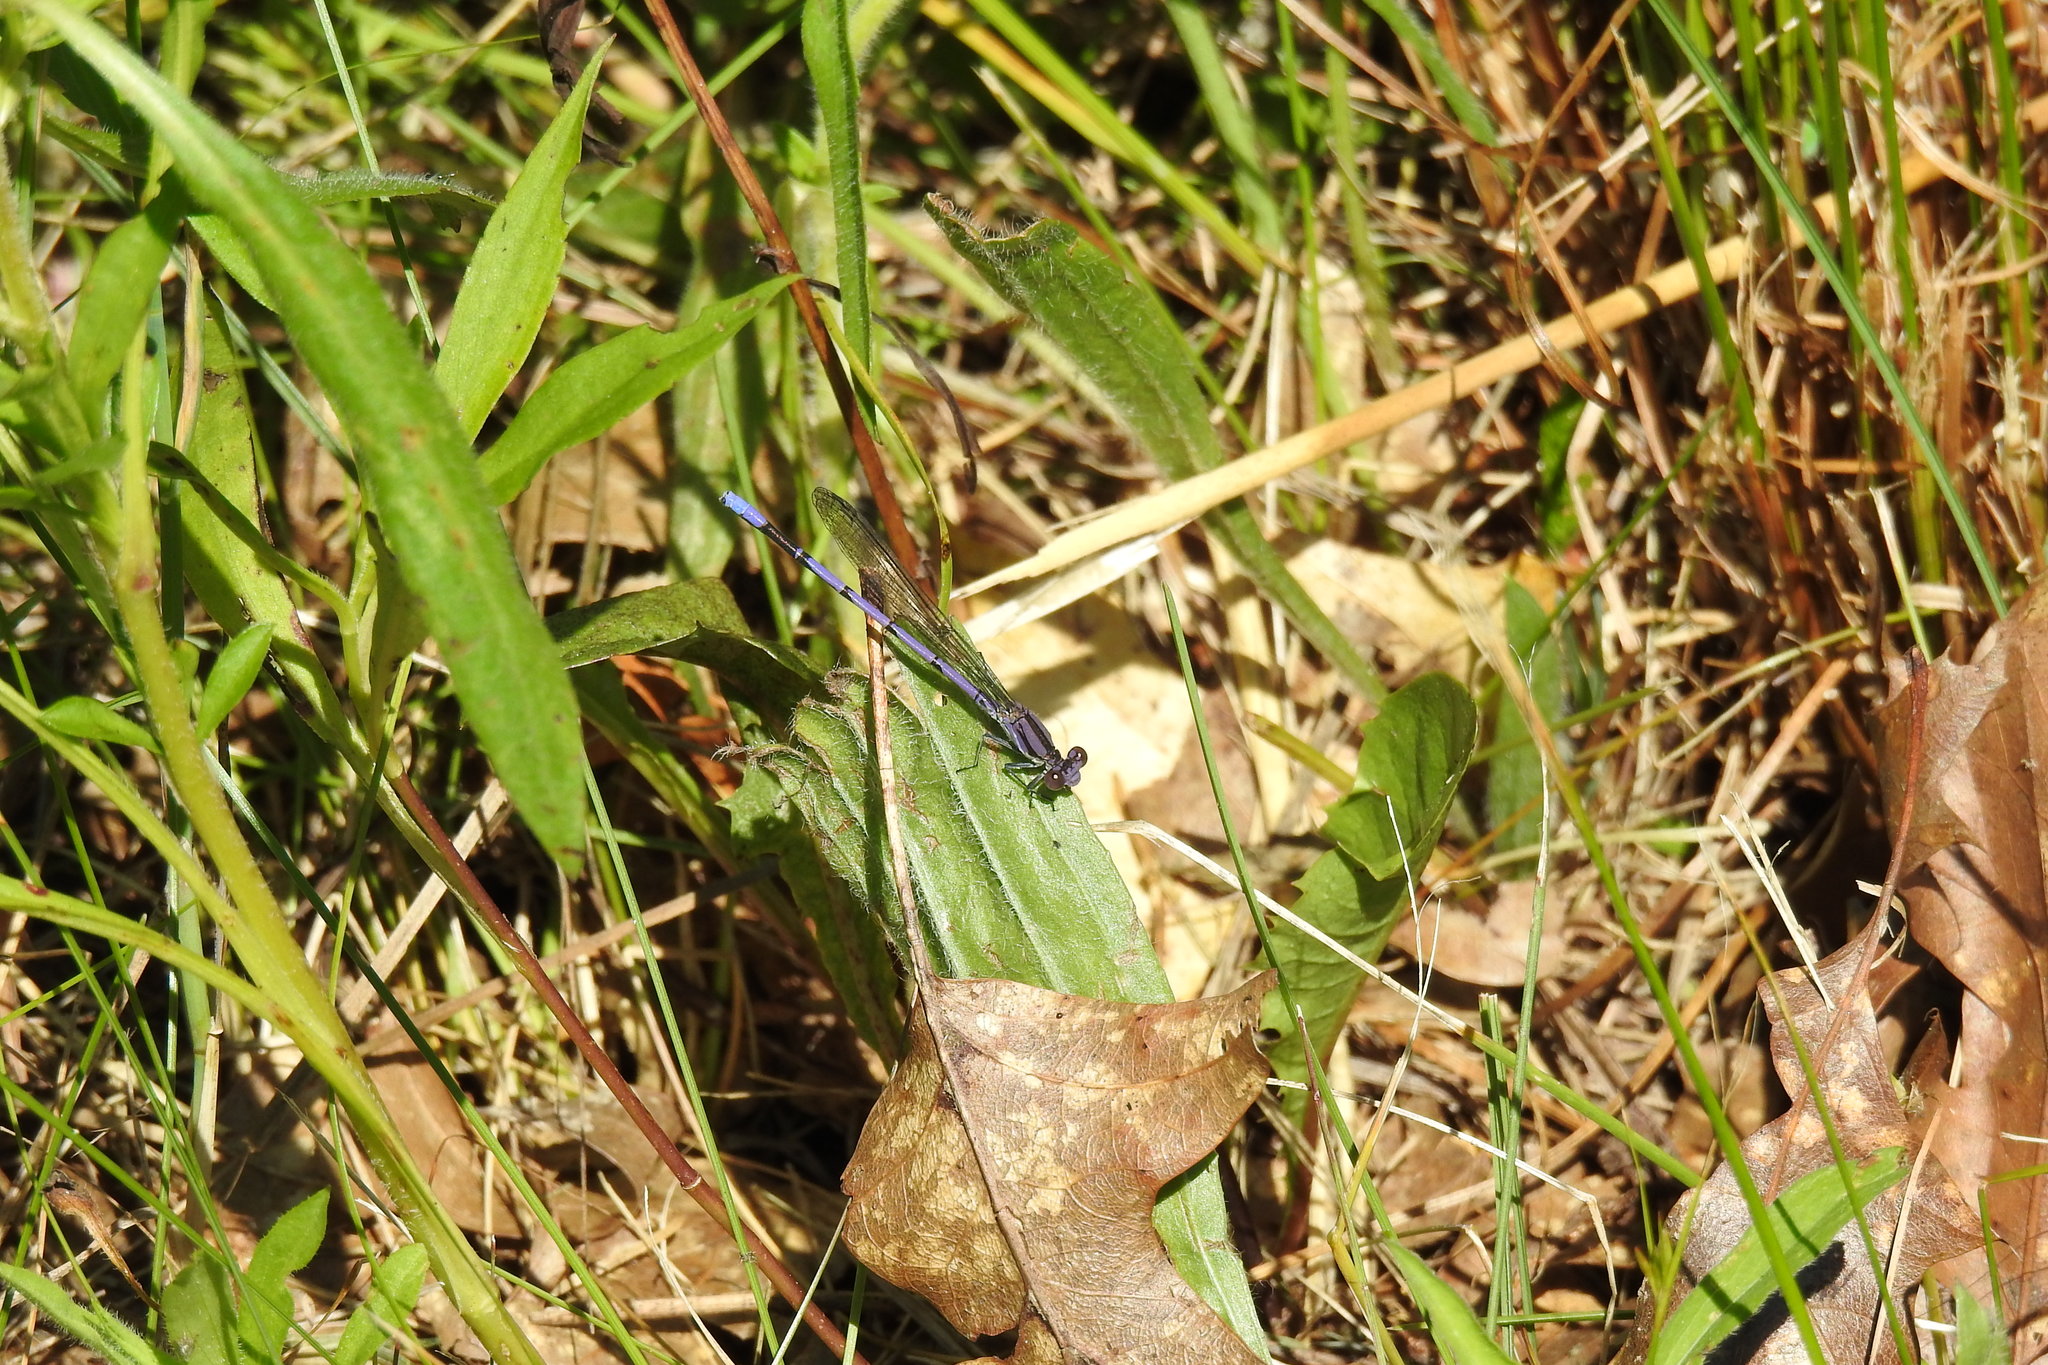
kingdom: Animalia
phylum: Arthropoda
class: Insecta
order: Odonata
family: Coenagrionidae
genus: Argia
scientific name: Argia fumipennis
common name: Variable dancer
